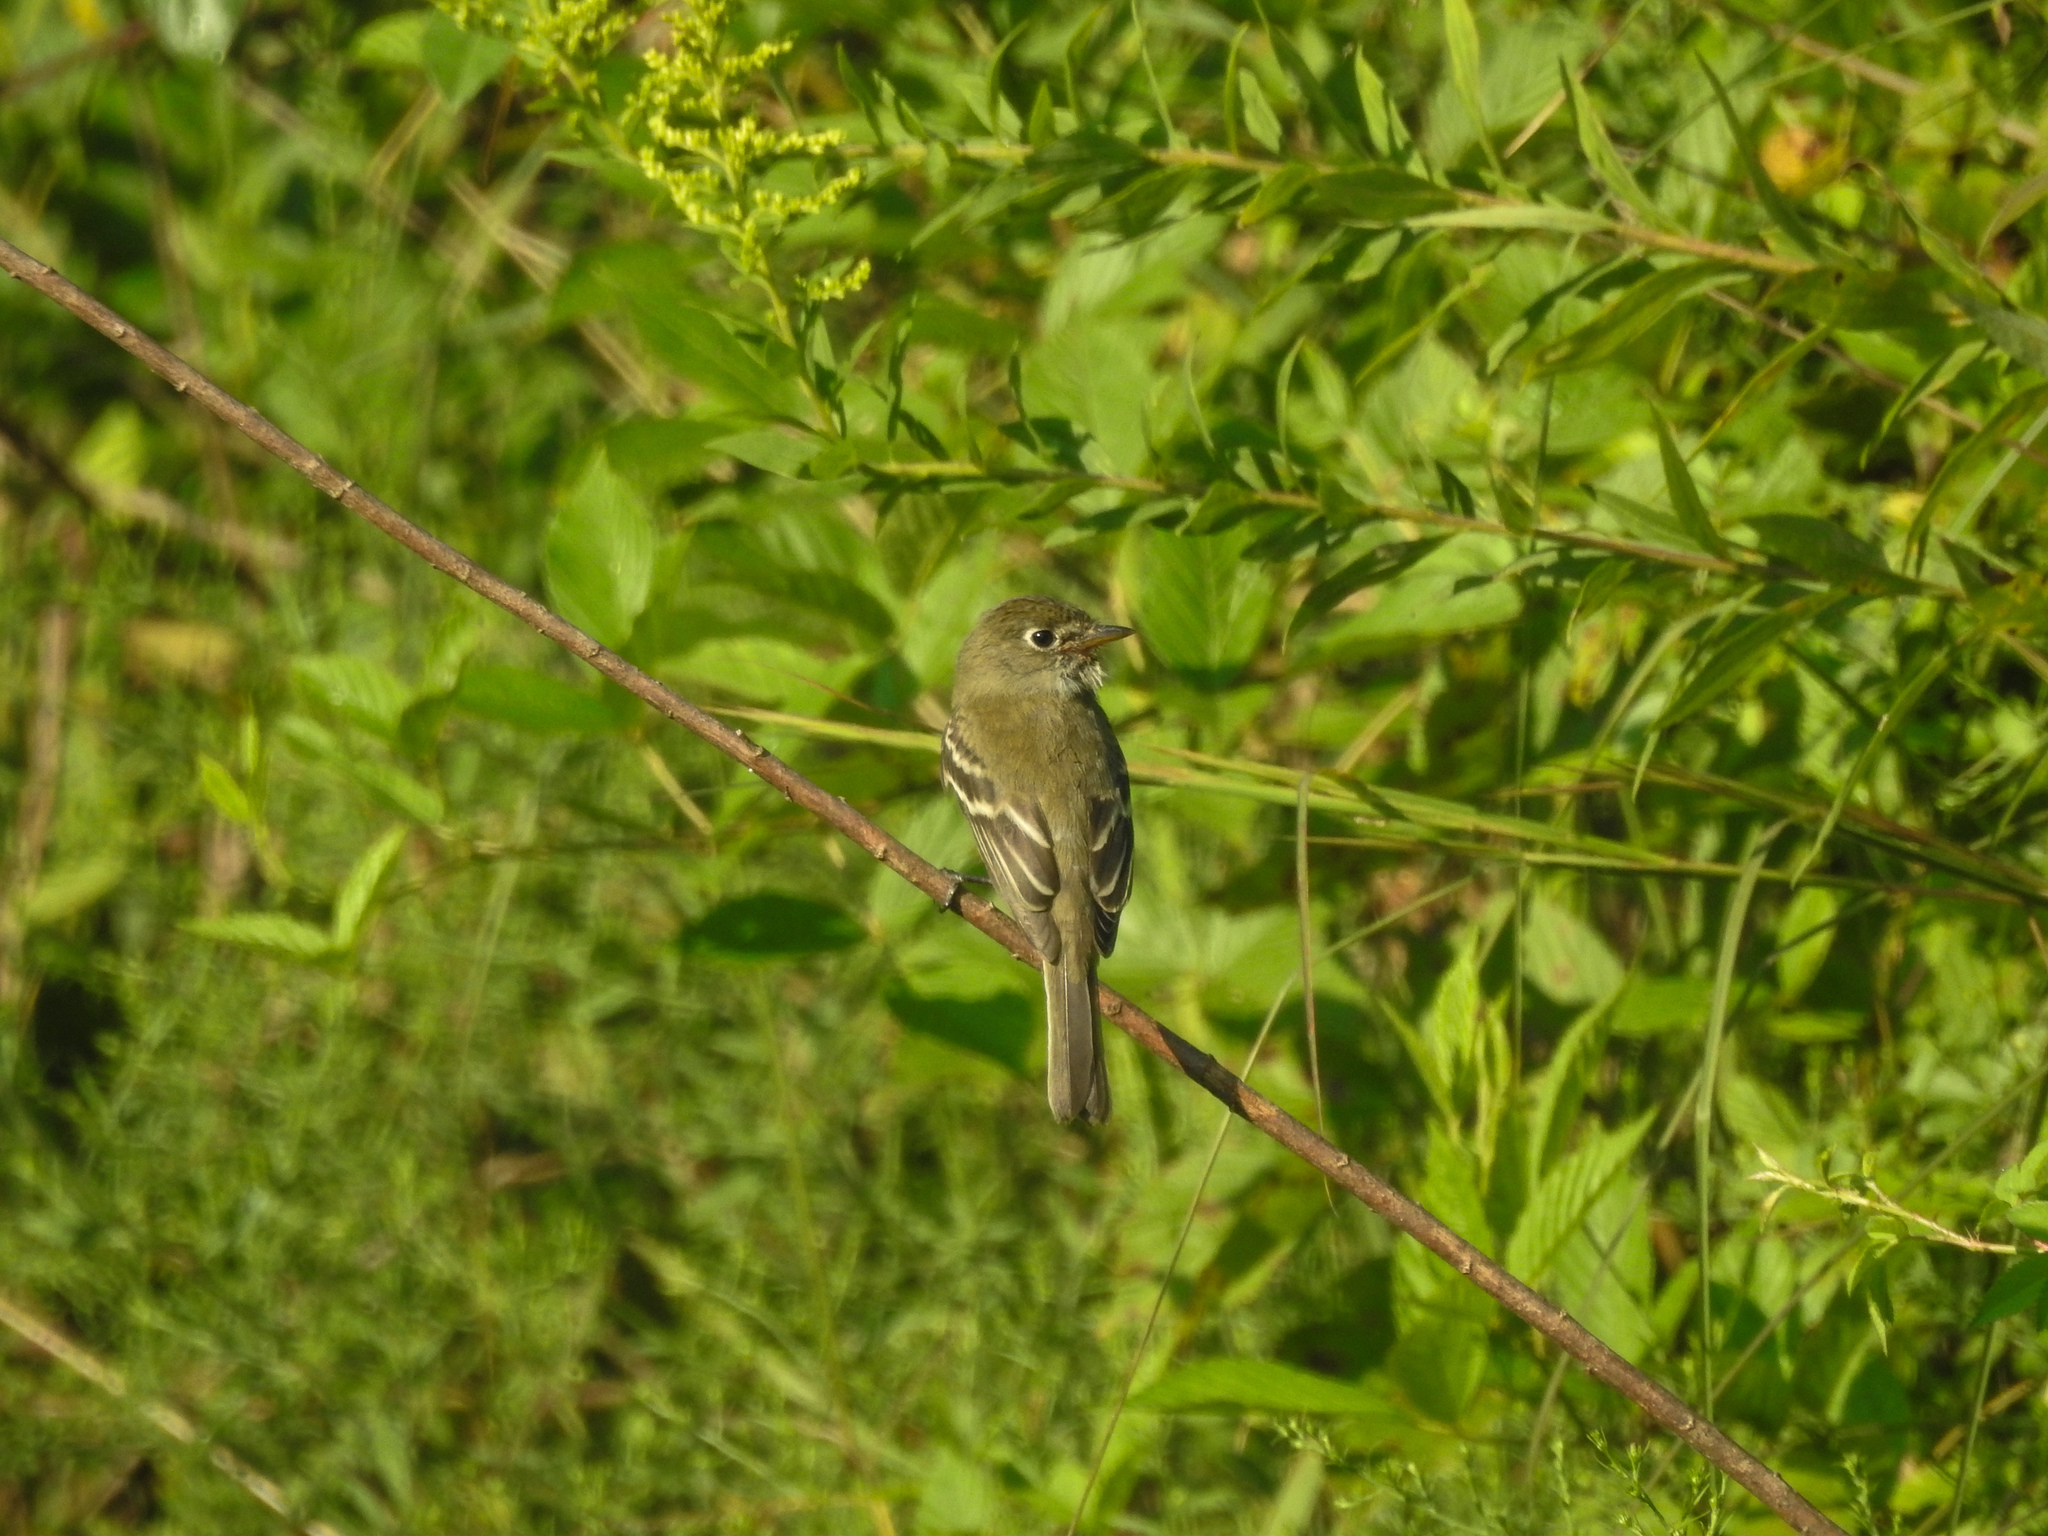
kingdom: Animalia
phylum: Chordata
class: Aves
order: Passeriformes
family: Tyrannidae
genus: Empidonax
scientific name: Empidonax minimus
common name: Least flycatcher
